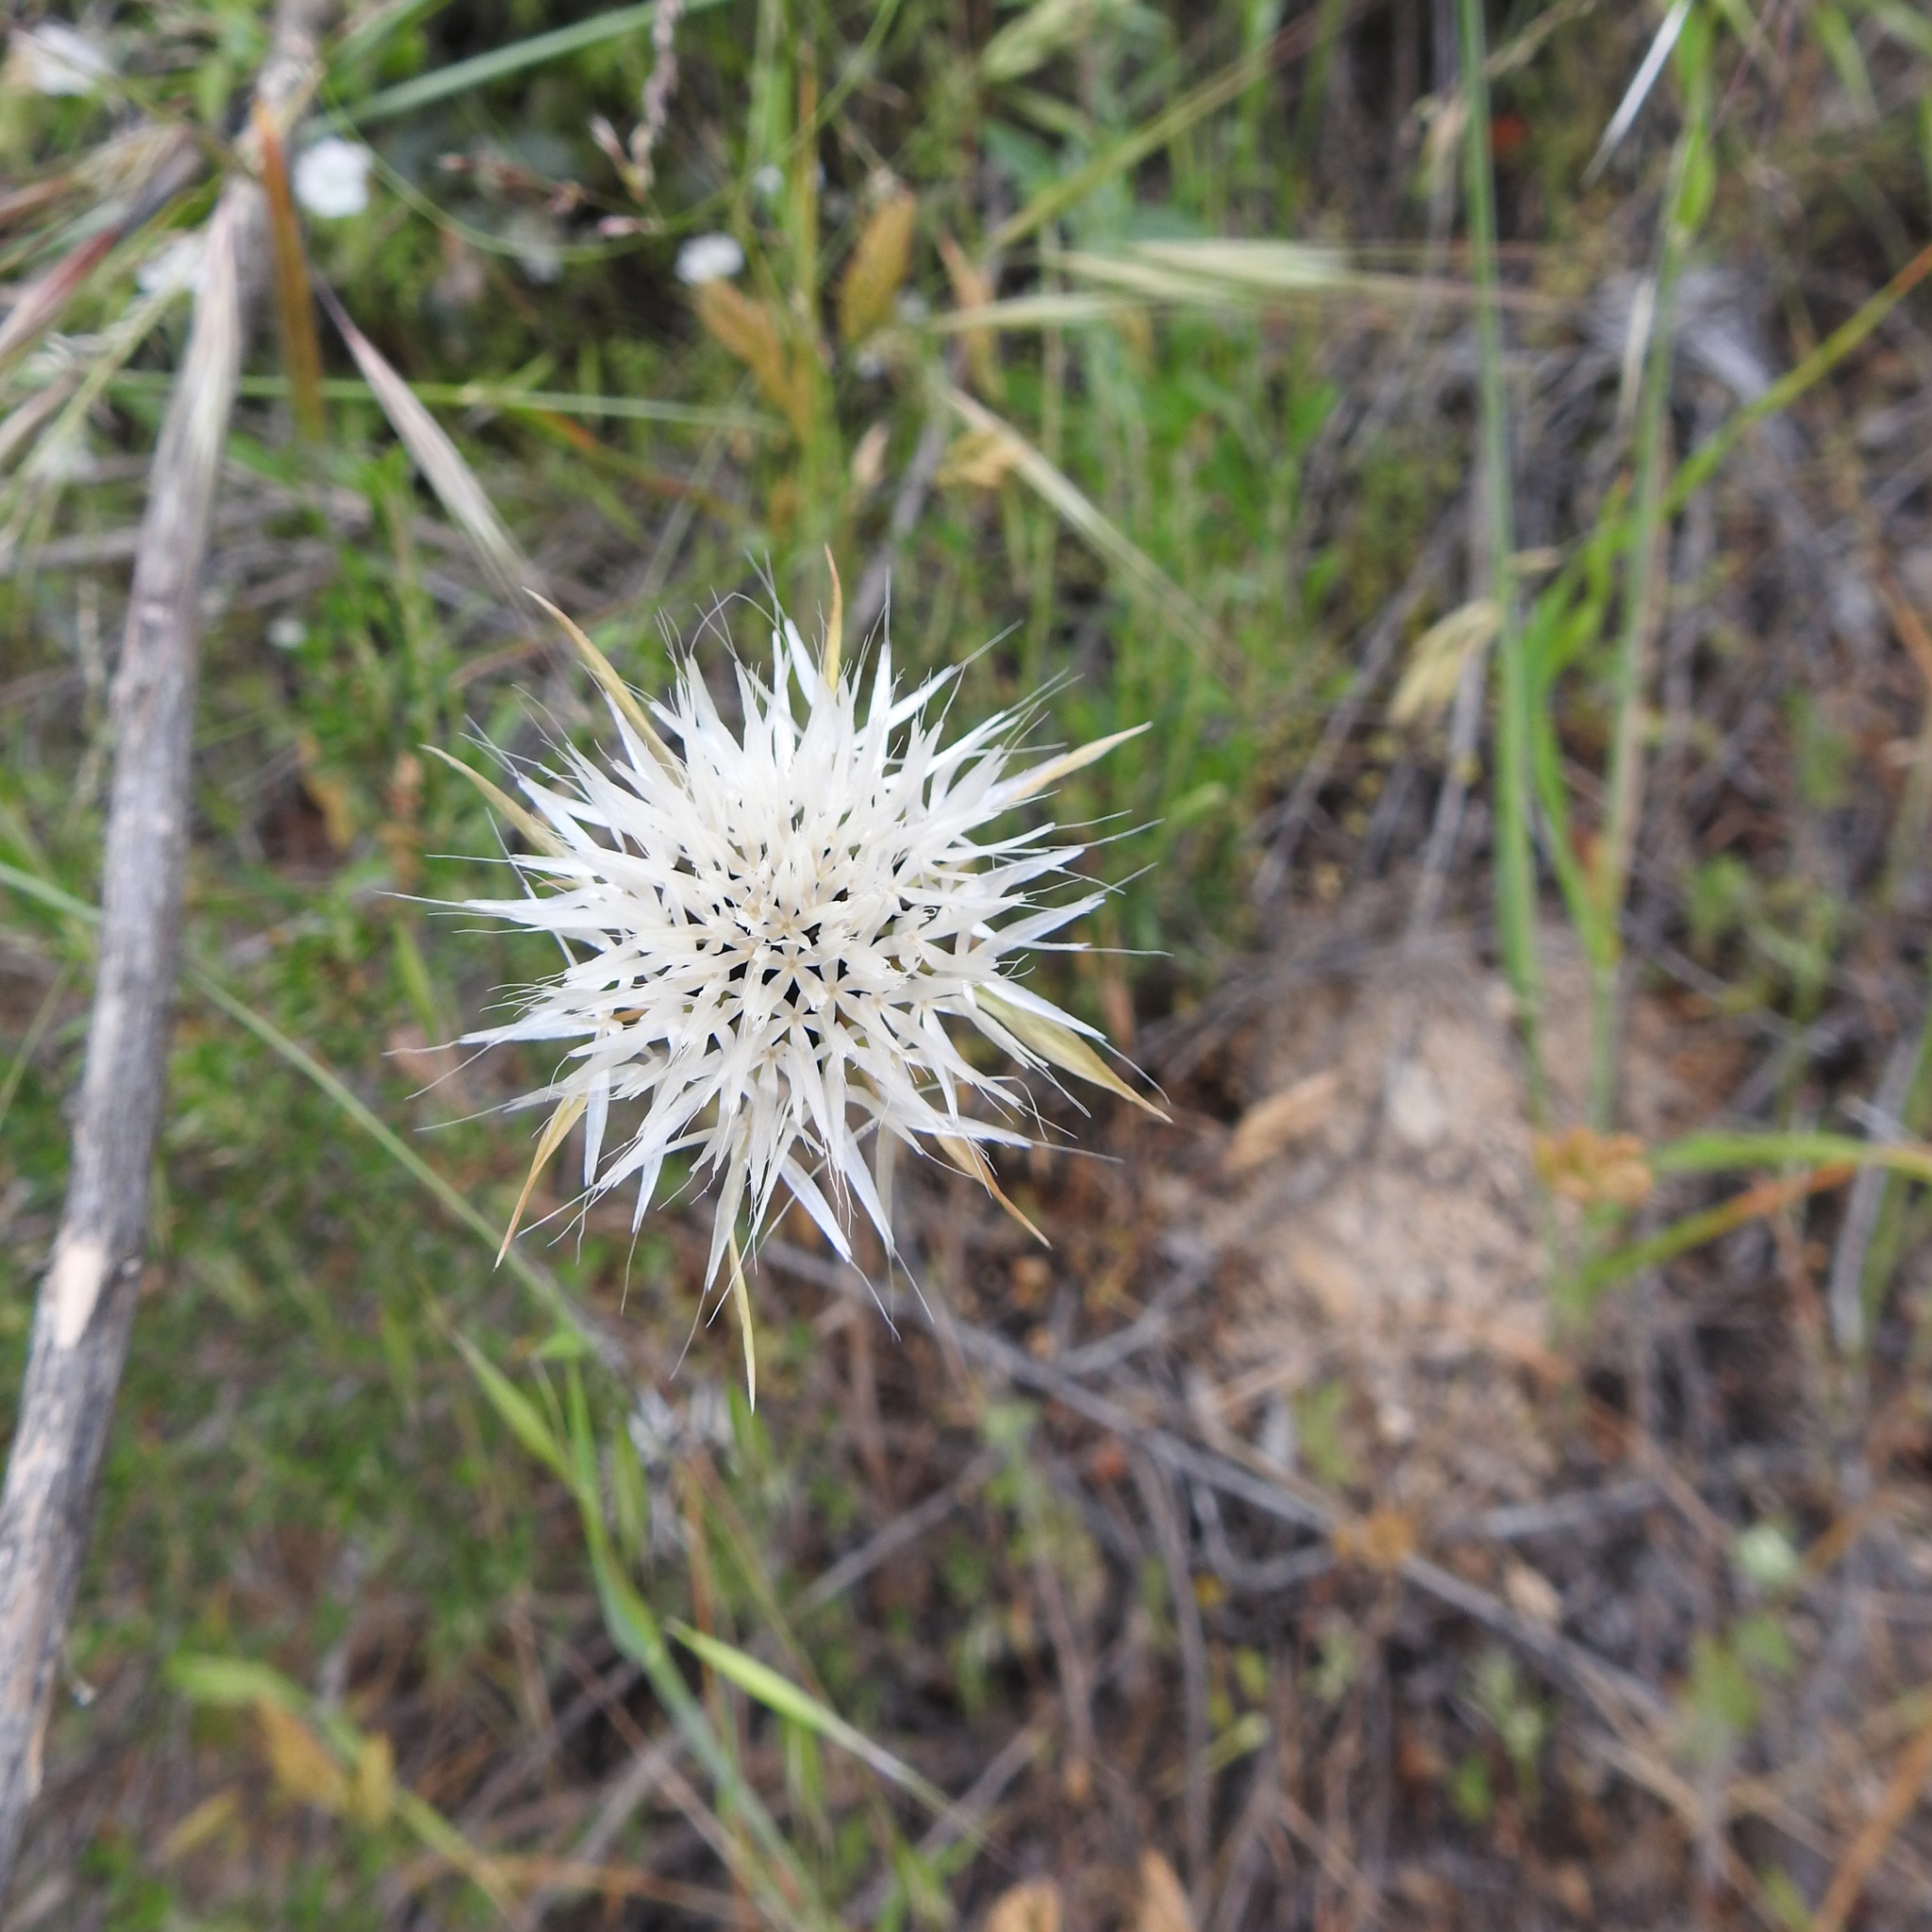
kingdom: Plantae
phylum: Tracheophyta
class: Magnoliopsida
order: Asterales
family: Asteraceae
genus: Microseris
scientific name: Microseris lindleyi
